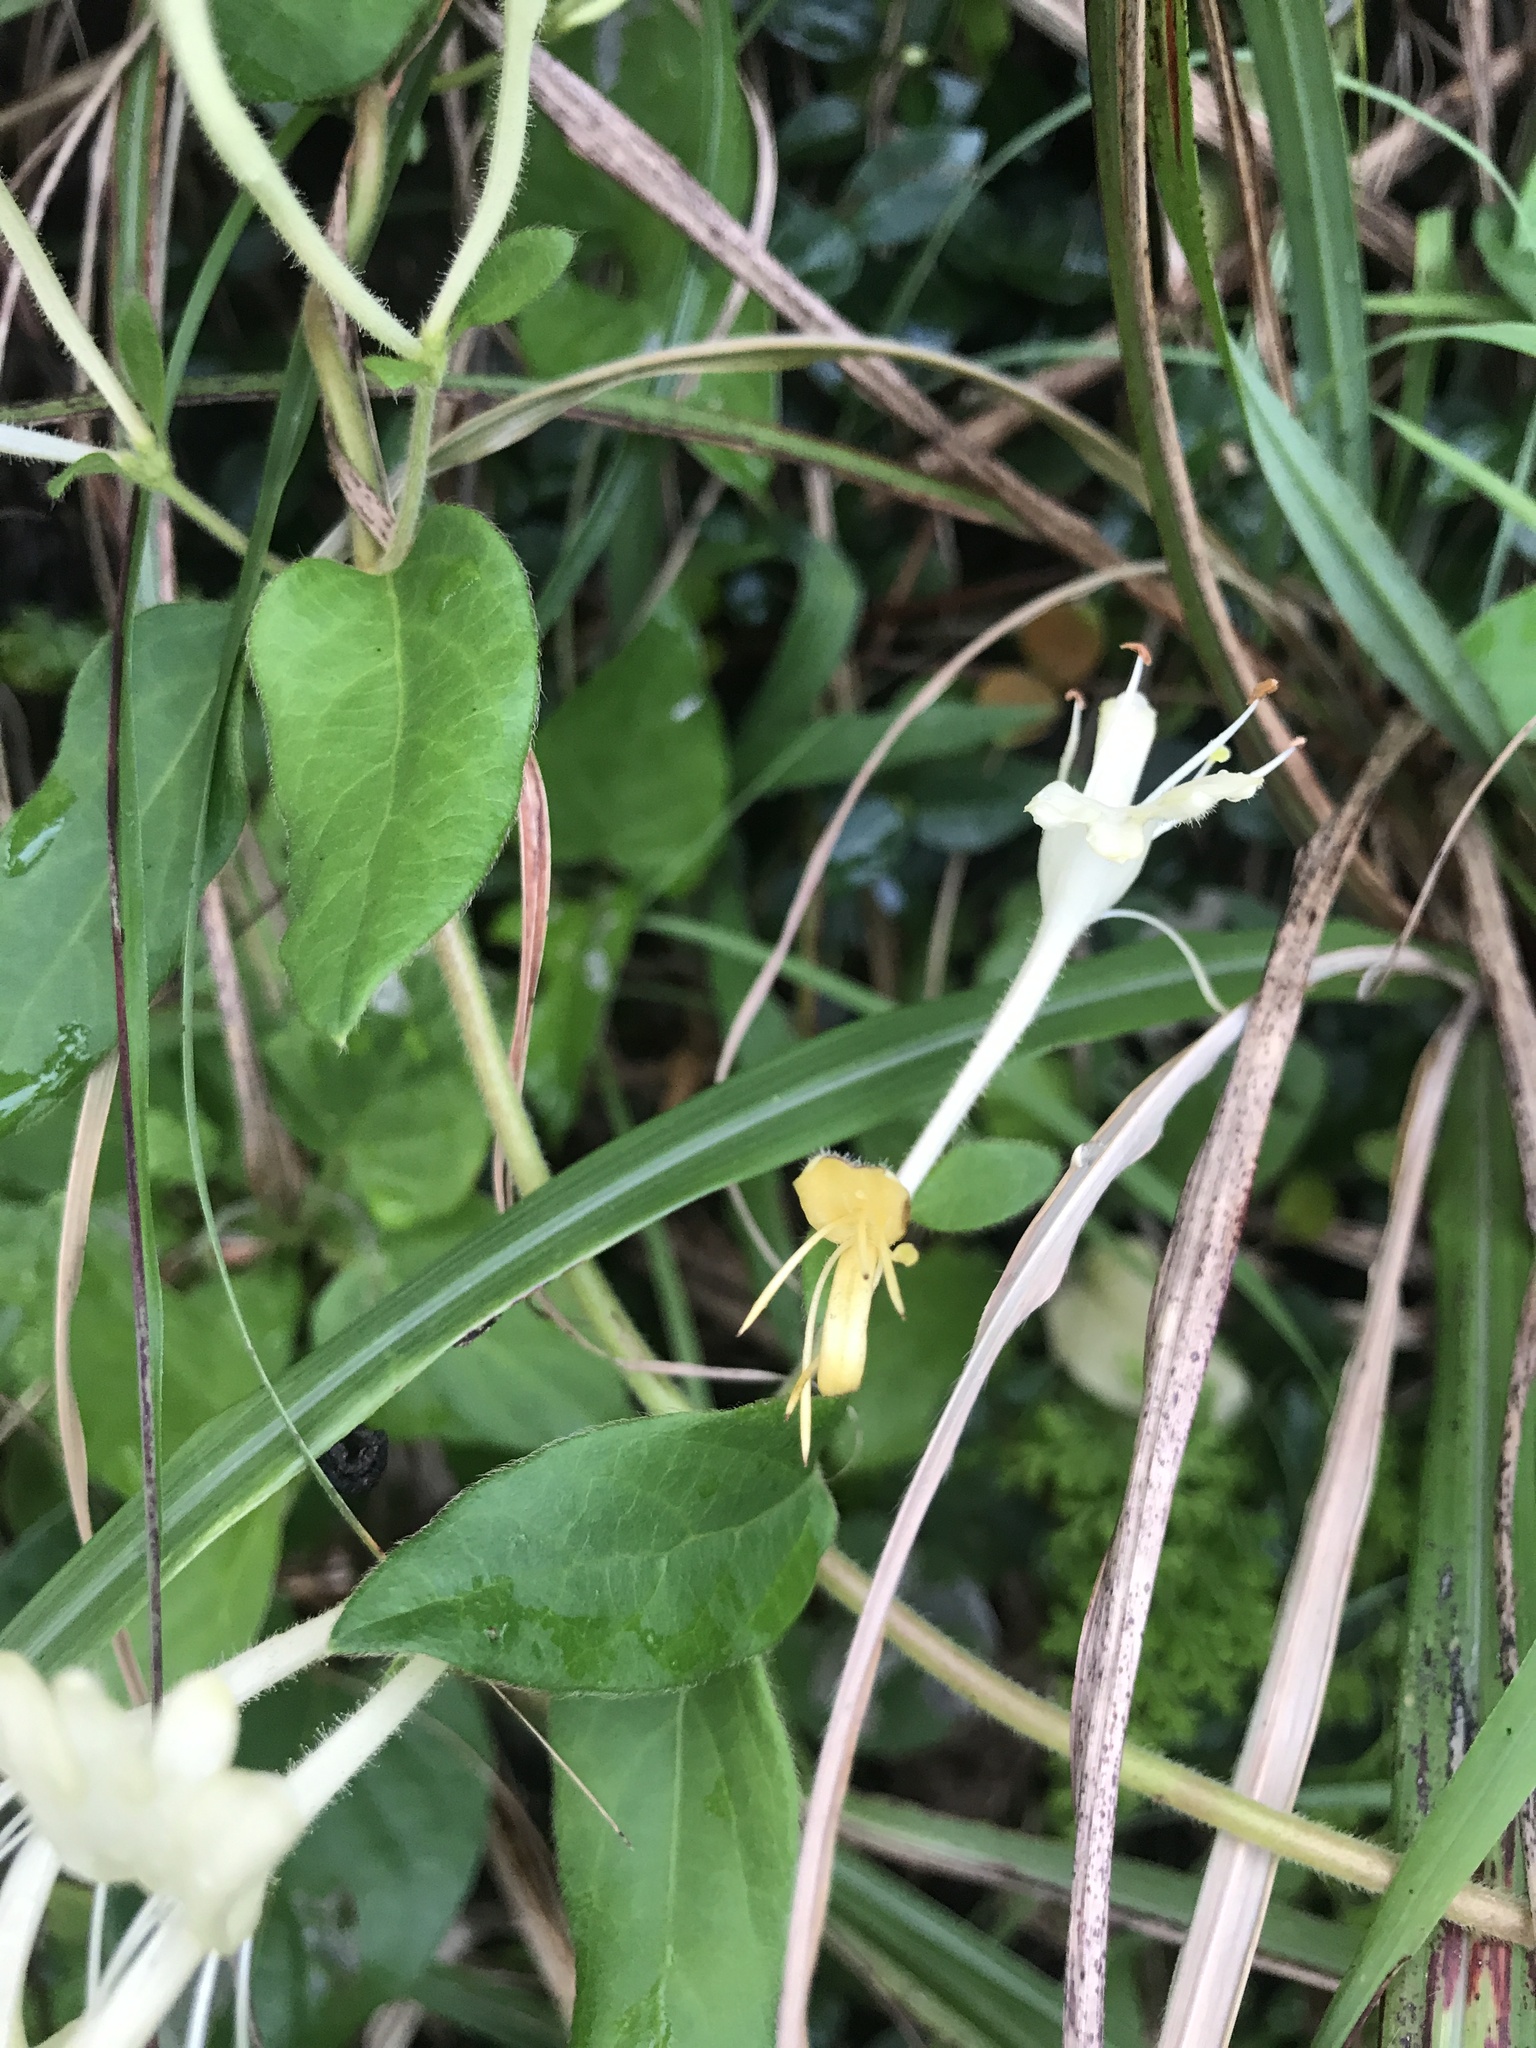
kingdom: Plantae
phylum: Tracheophyta
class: Magnoliopsida
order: Dipsacales
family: Caprifoliaceae
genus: Lonicera
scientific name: Lonicera japonica
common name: Japanese honeysuckle
